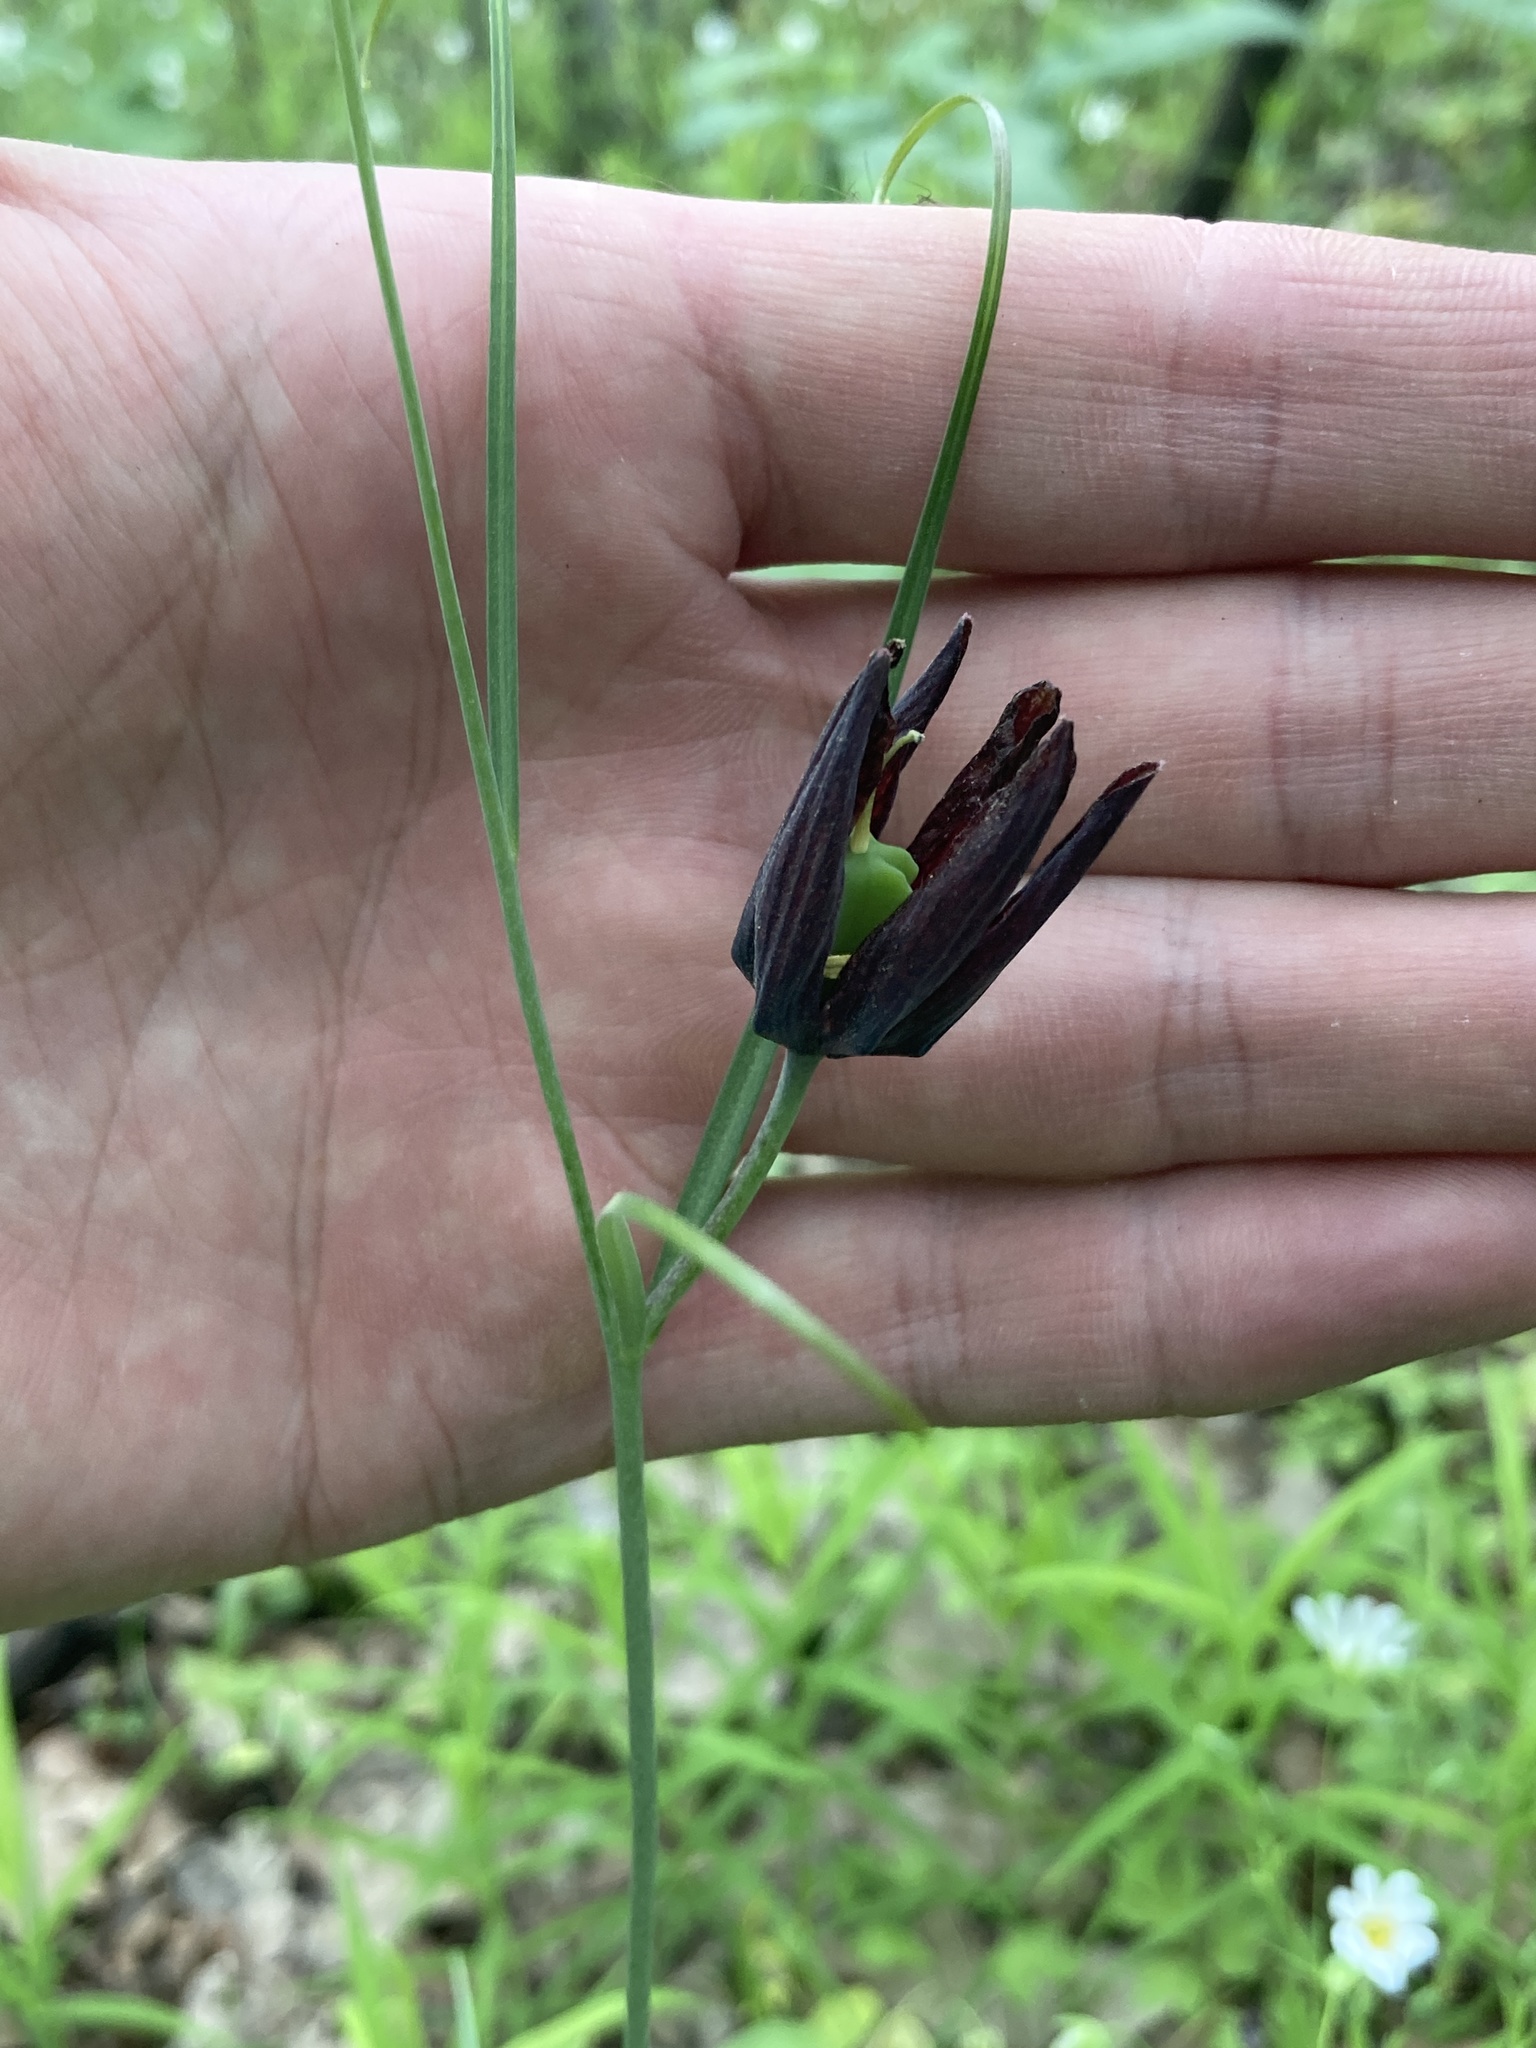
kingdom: Plantae
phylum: Tracheophyta
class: Liliopsida
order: Liliales
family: Liliaceae
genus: Fritillaria
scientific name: Fritillaria ruthenica
